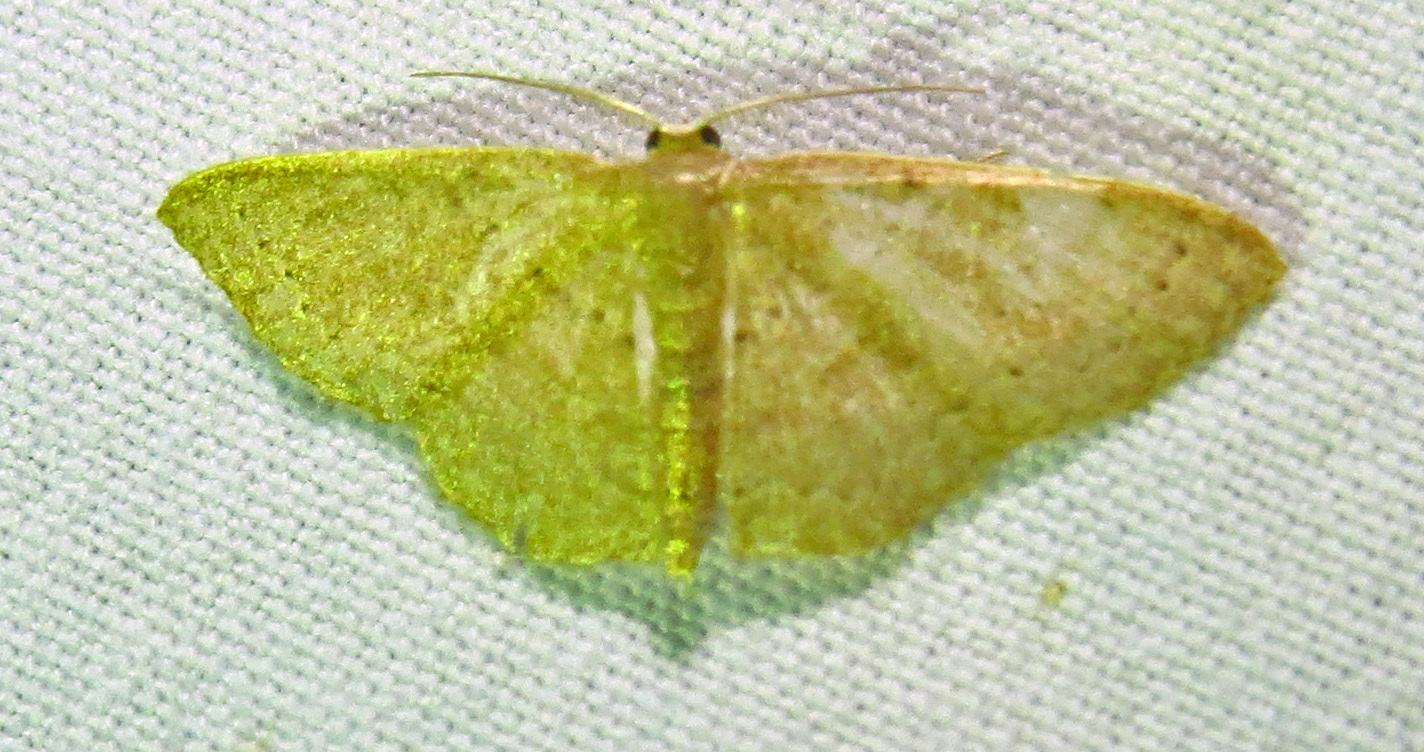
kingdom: Animalia
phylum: Arthropoda
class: Insecta
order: Lepidoptera
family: Geometridae
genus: Pleuroprucha
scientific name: Pleuroprucha insulsaria
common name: Common tan wave
